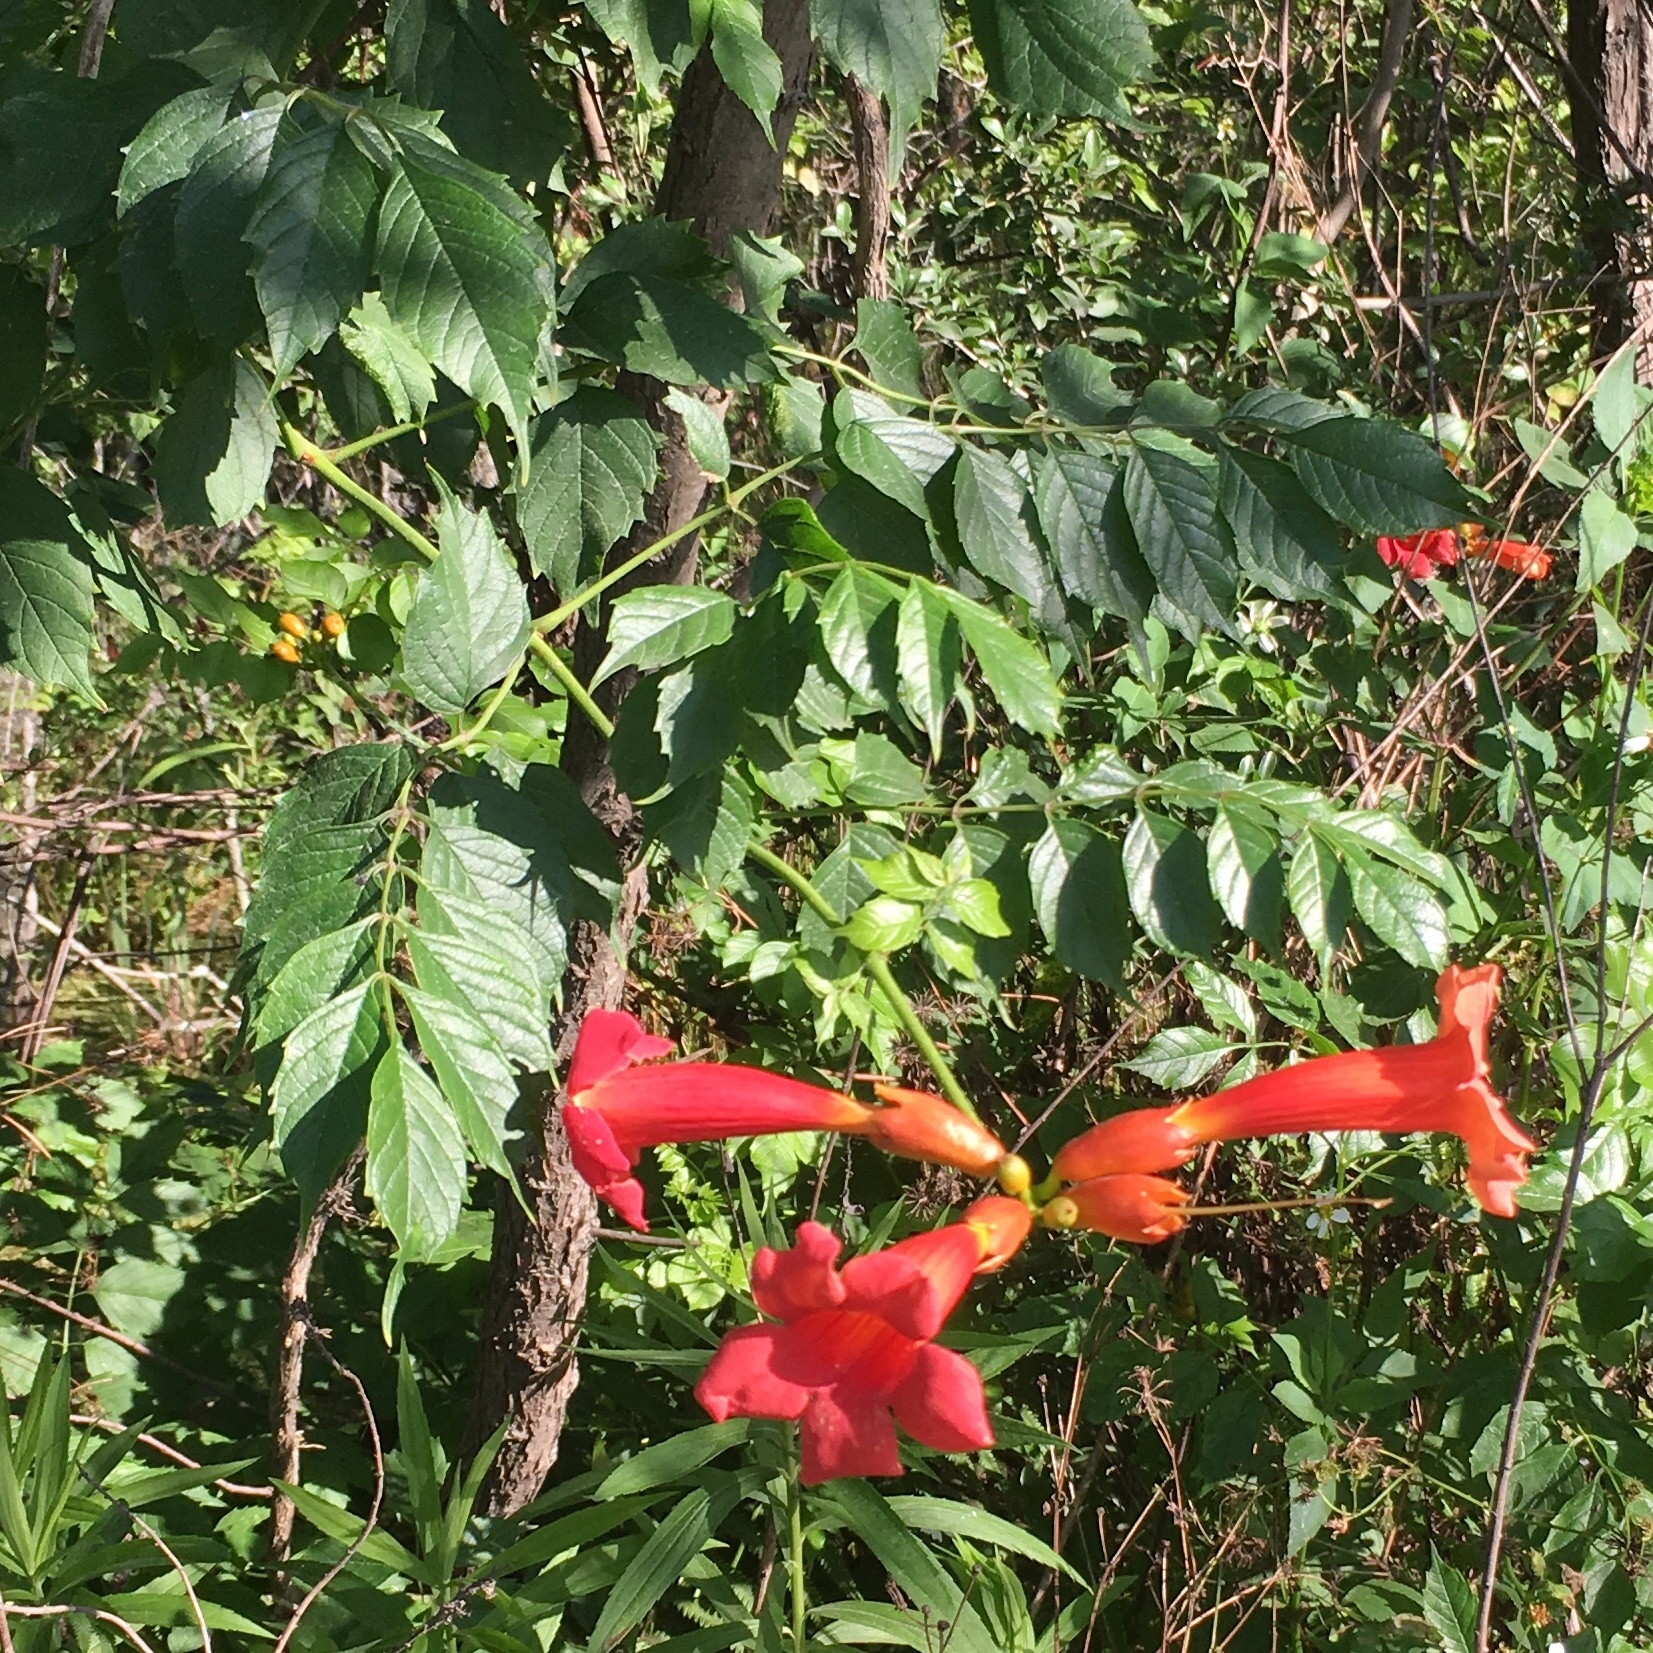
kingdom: Plantae
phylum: Tracheophyta
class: Magnoliopsida
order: Lamiales
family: Bignoniaceae
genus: Campsis
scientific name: Campsis radicans
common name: Trumpet-creeper
